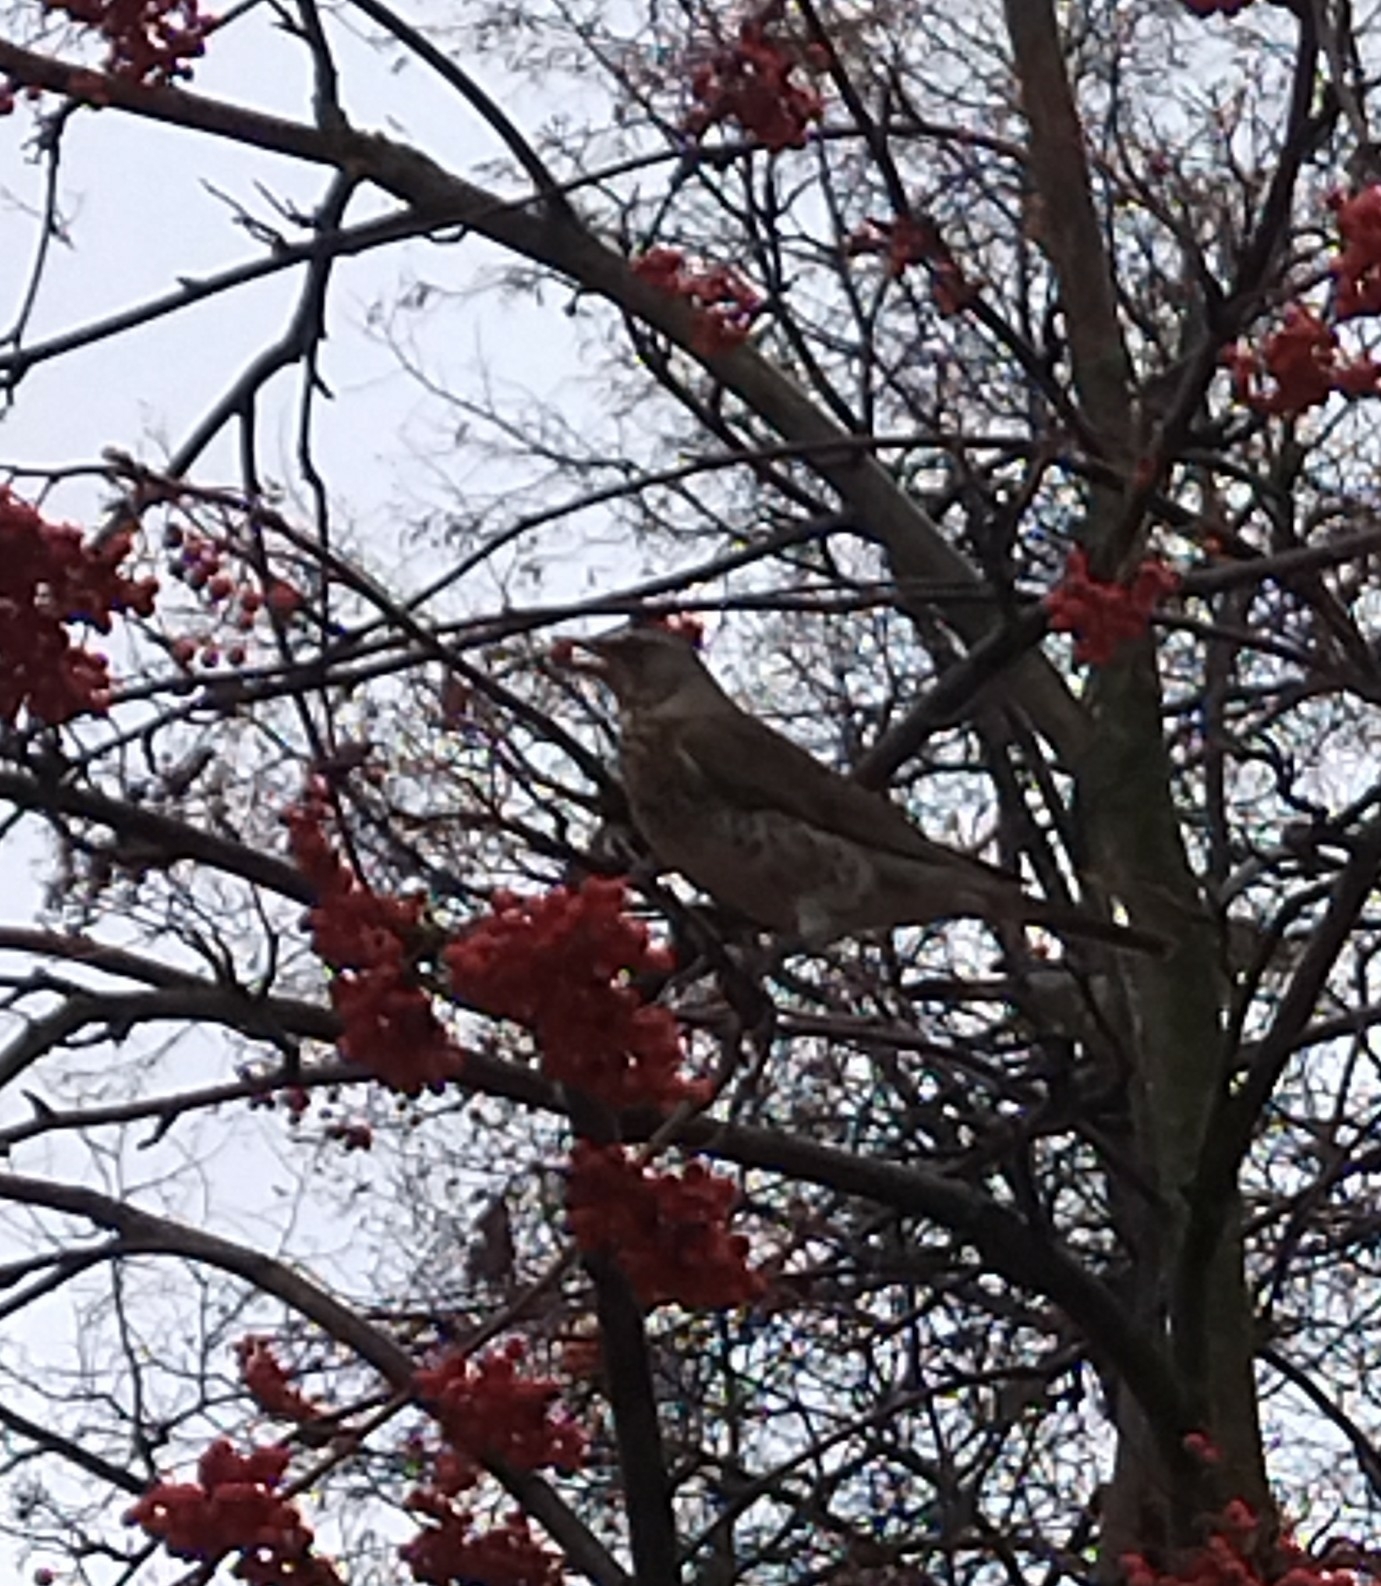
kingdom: Animalia
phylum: Chordata
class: Aves
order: Passeriformes
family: Turdidae
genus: Turdus
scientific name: Turdus pilaris
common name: Fieldfare
